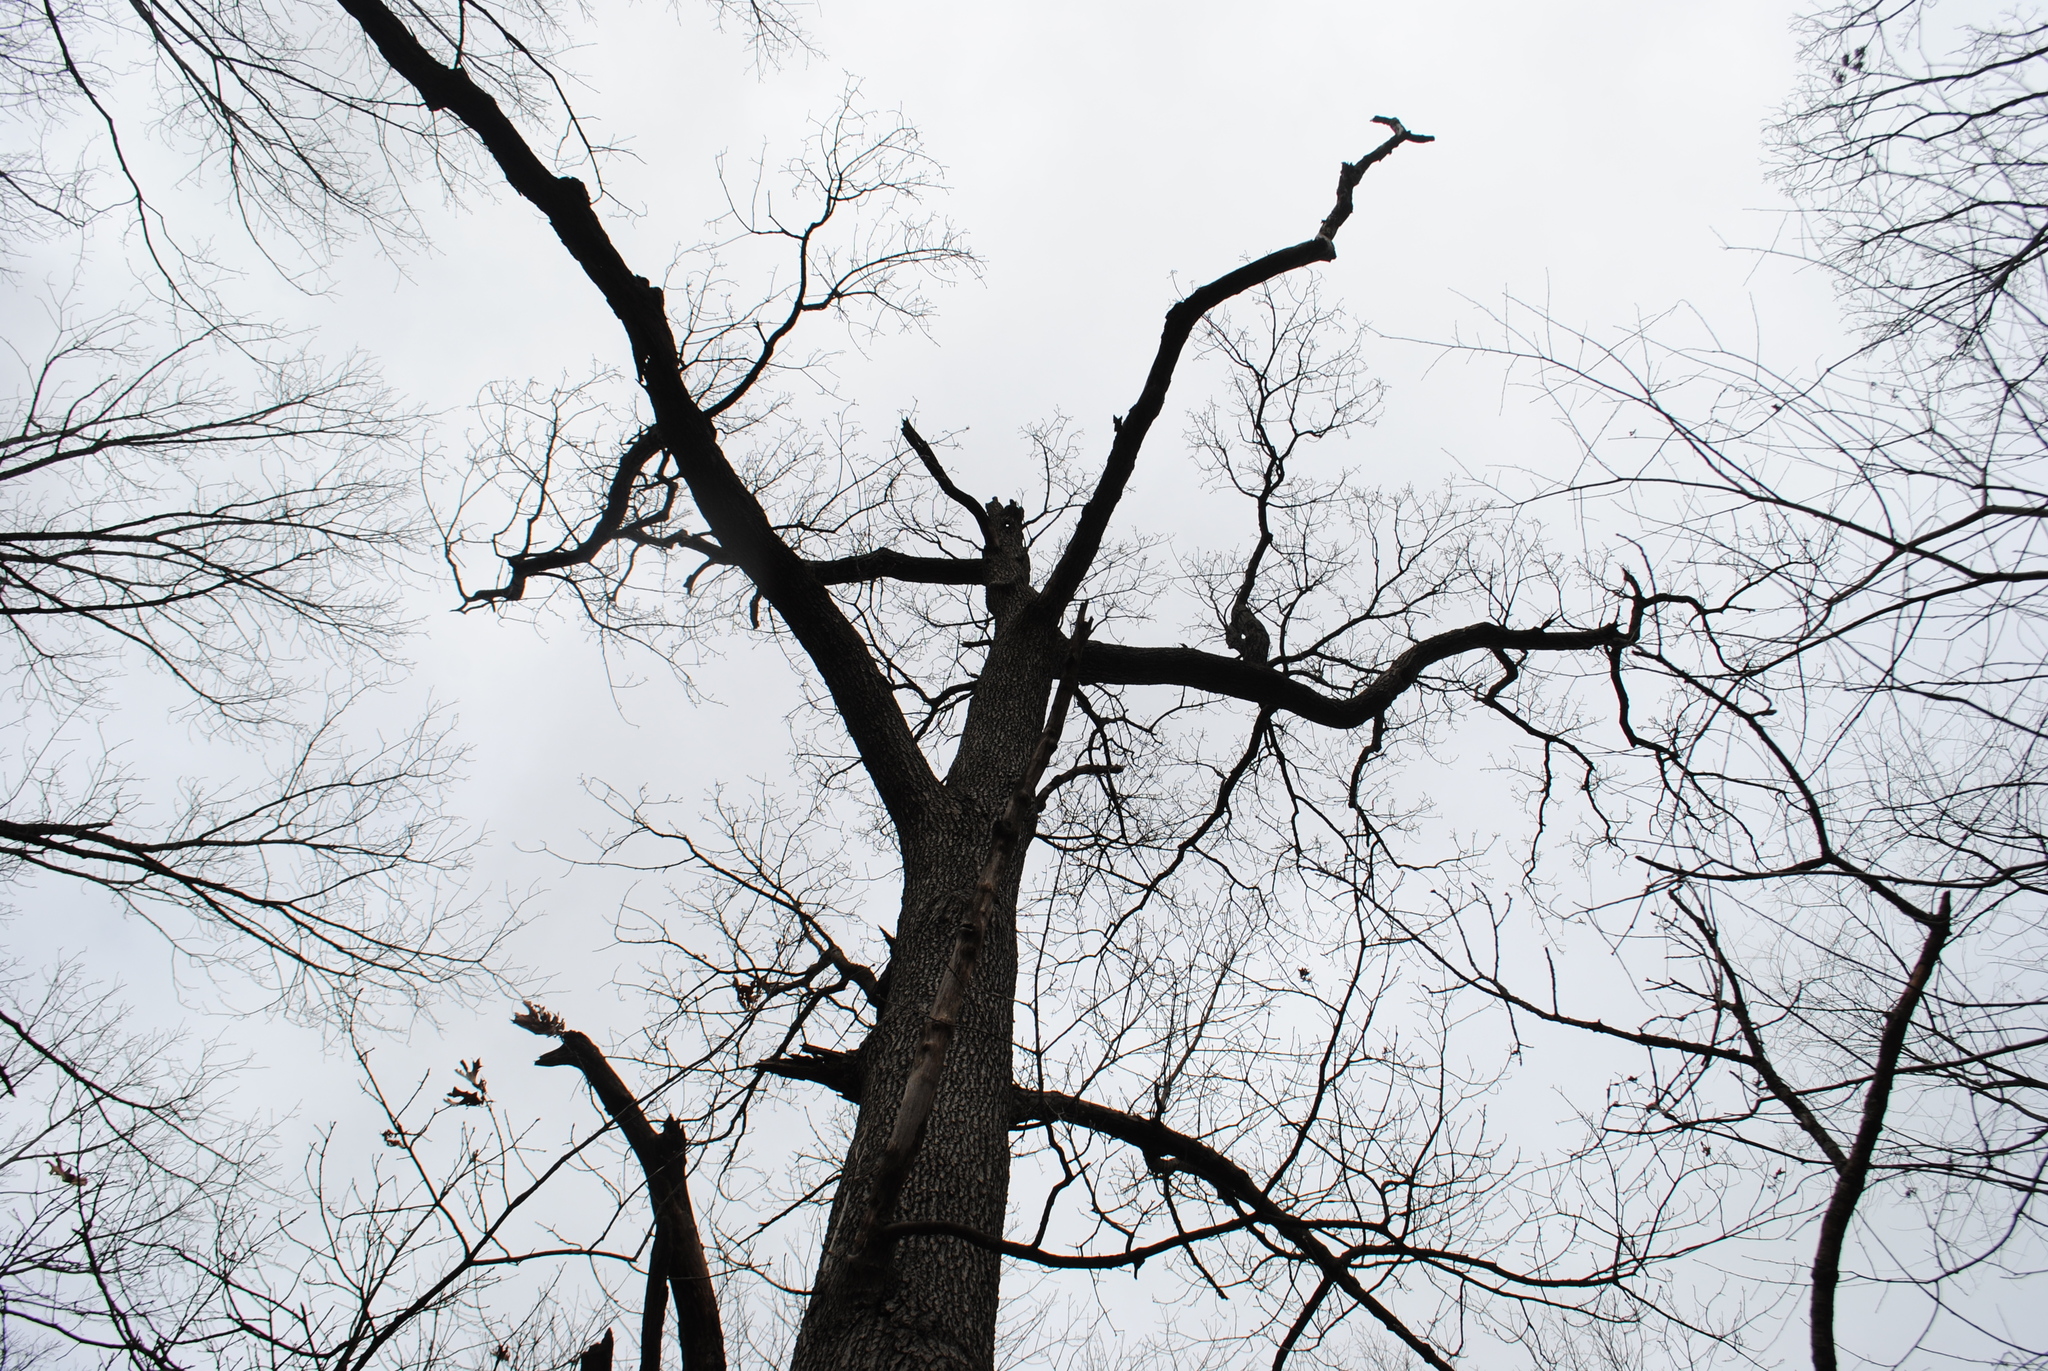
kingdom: Plantae
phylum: Tracheophyta
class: Magnoliopsida
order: Fagales
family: Fagaceae
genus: Quercus
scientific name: Quercus velutina
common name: Black oak
